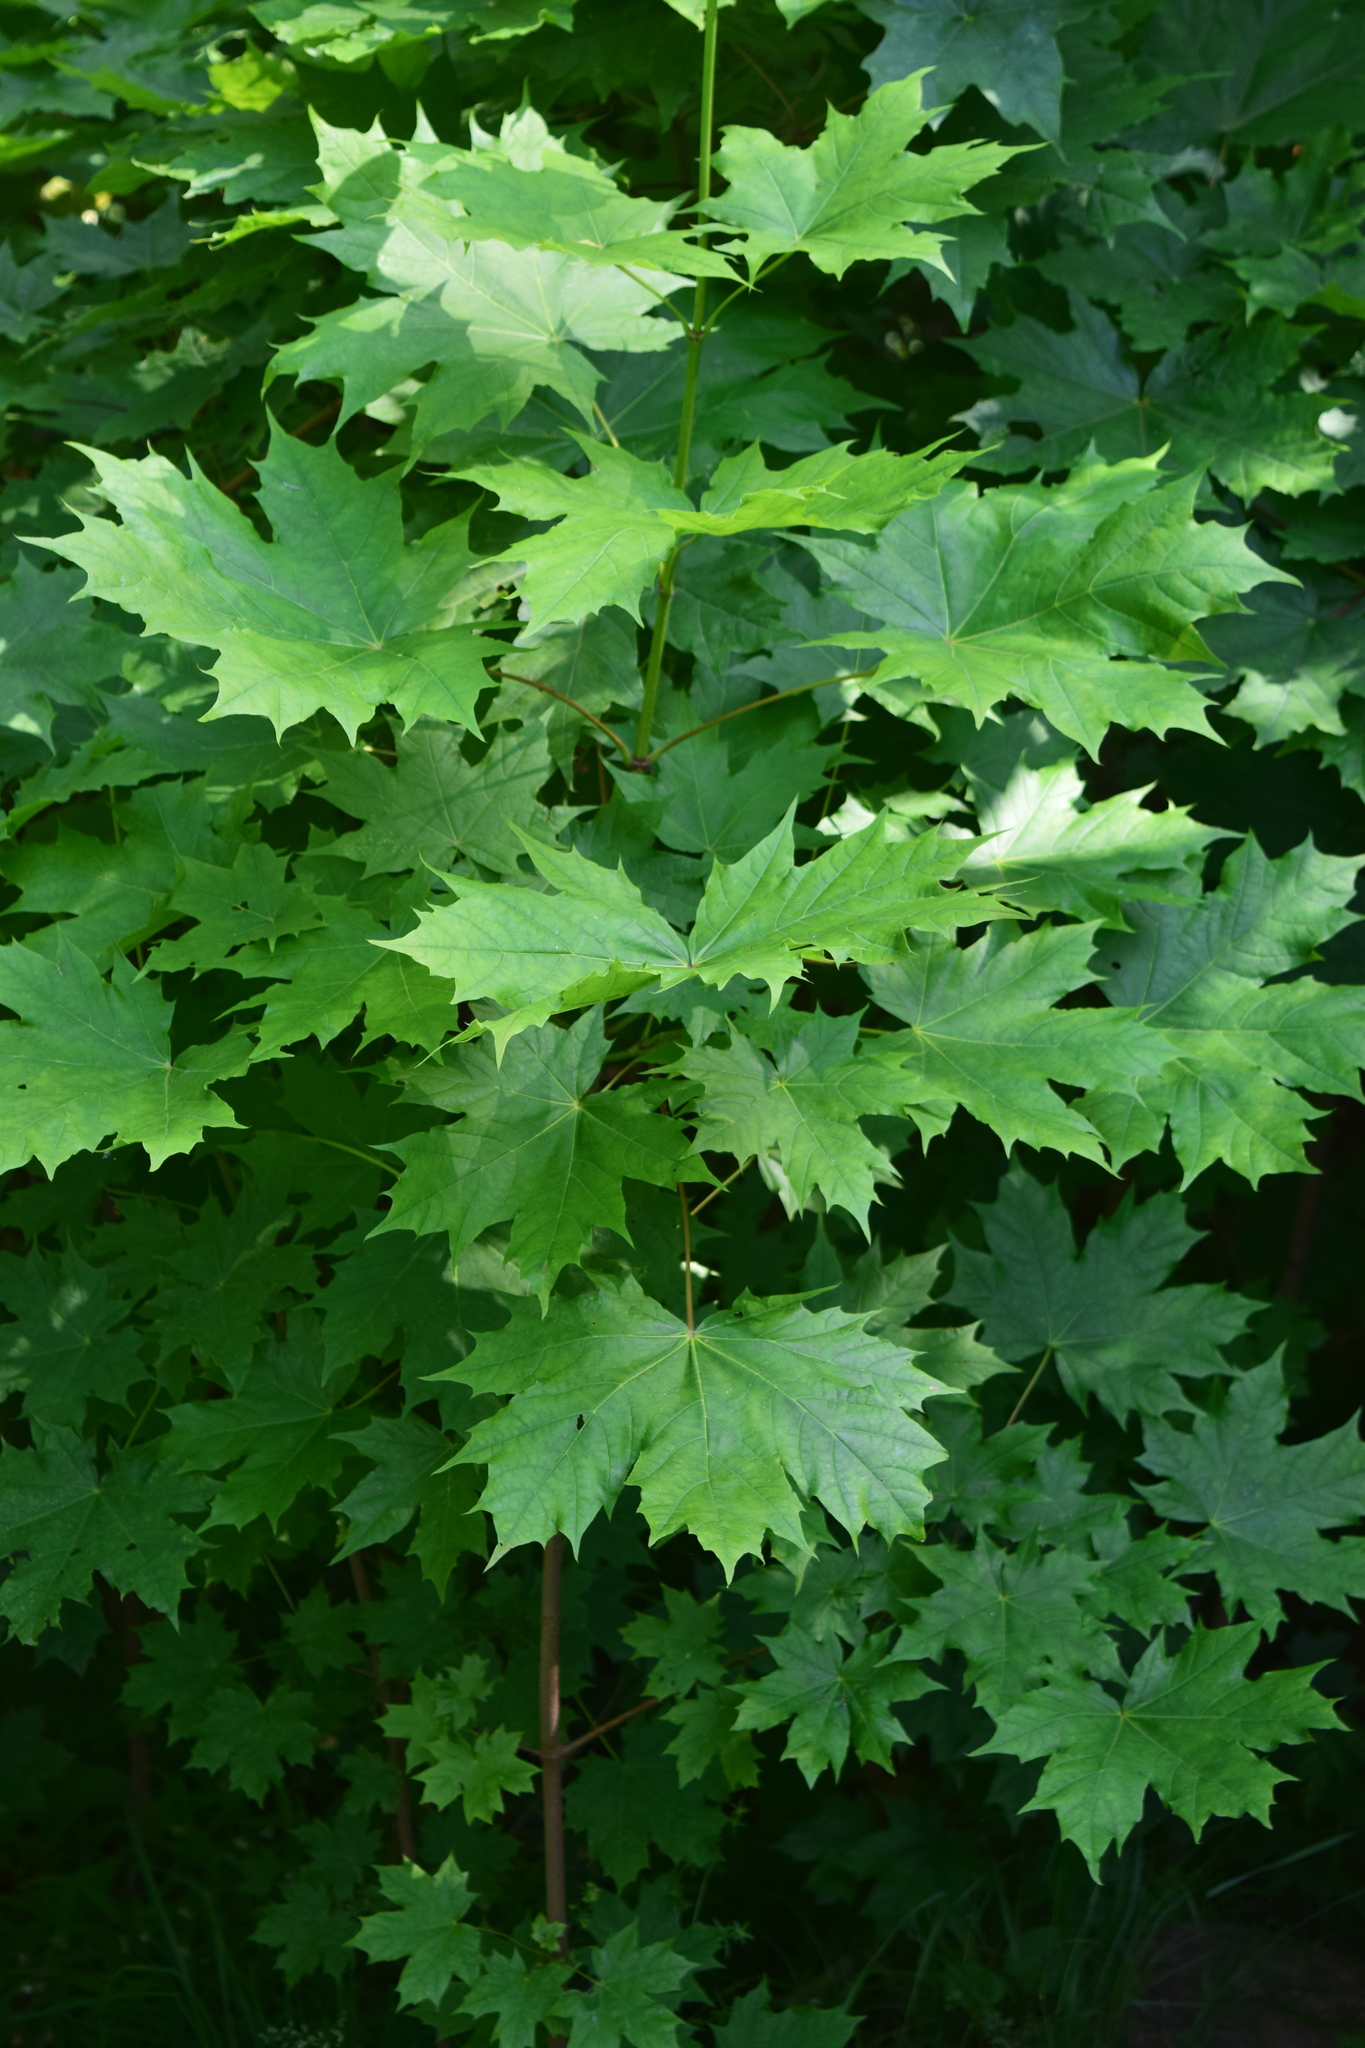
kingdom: Plantae
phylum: Tracheophyta
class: Magnoliopsida
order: Sapindales
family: Sapindaceae
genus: Acer
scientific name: Acer platanoides
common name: Norway maple
